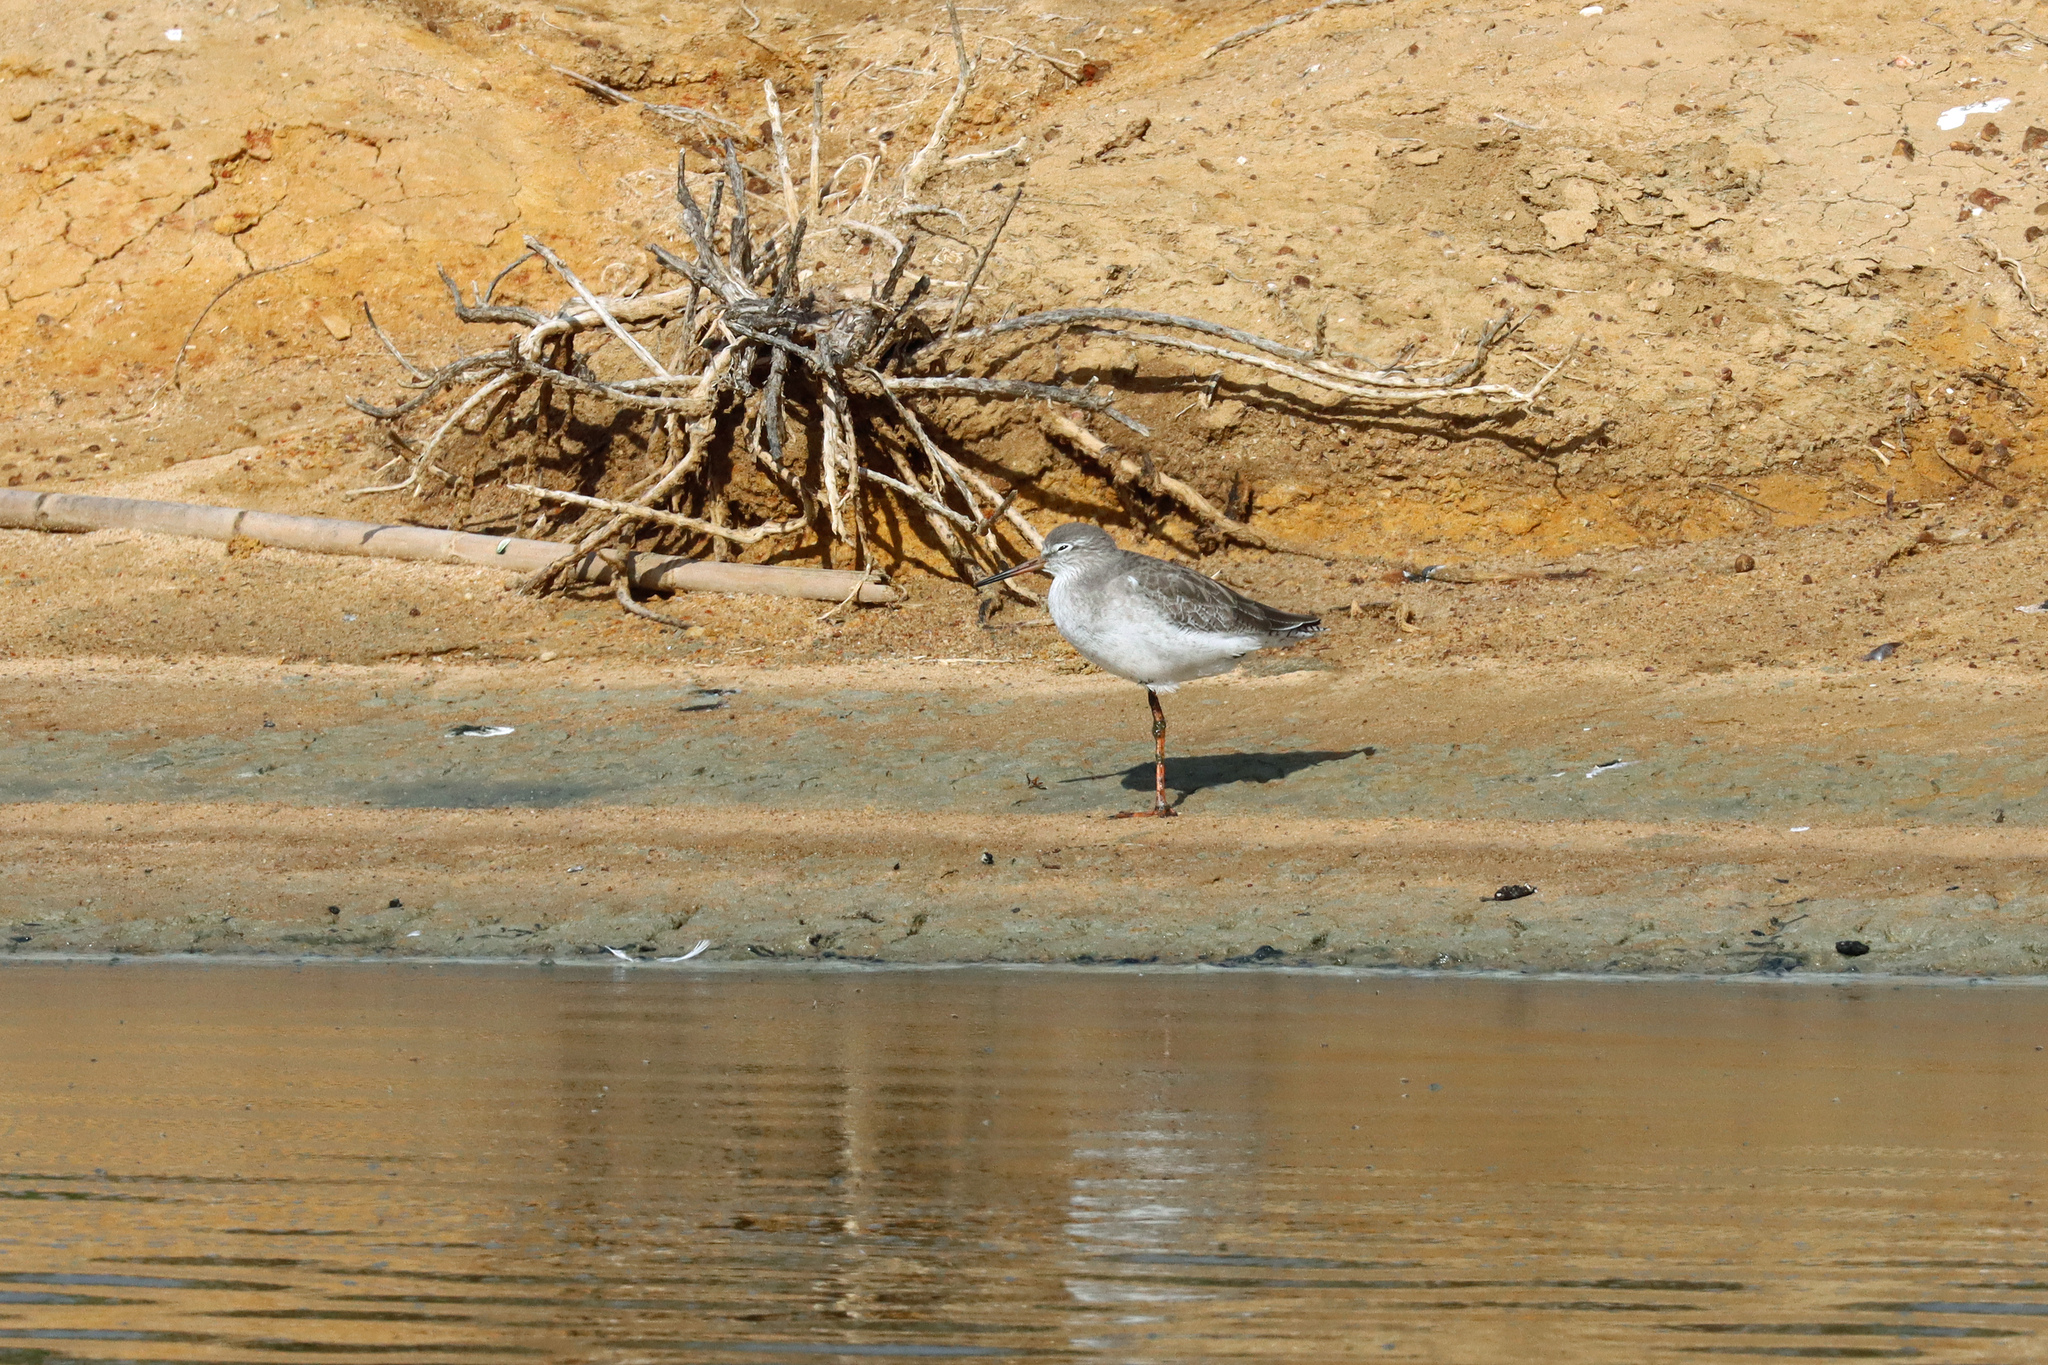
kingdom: Animalia
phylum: Chordata
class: Aves
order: Charadriiformes
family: Scolopacidae
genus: Tringa
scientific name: Tringa totanus
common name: Common redshank
